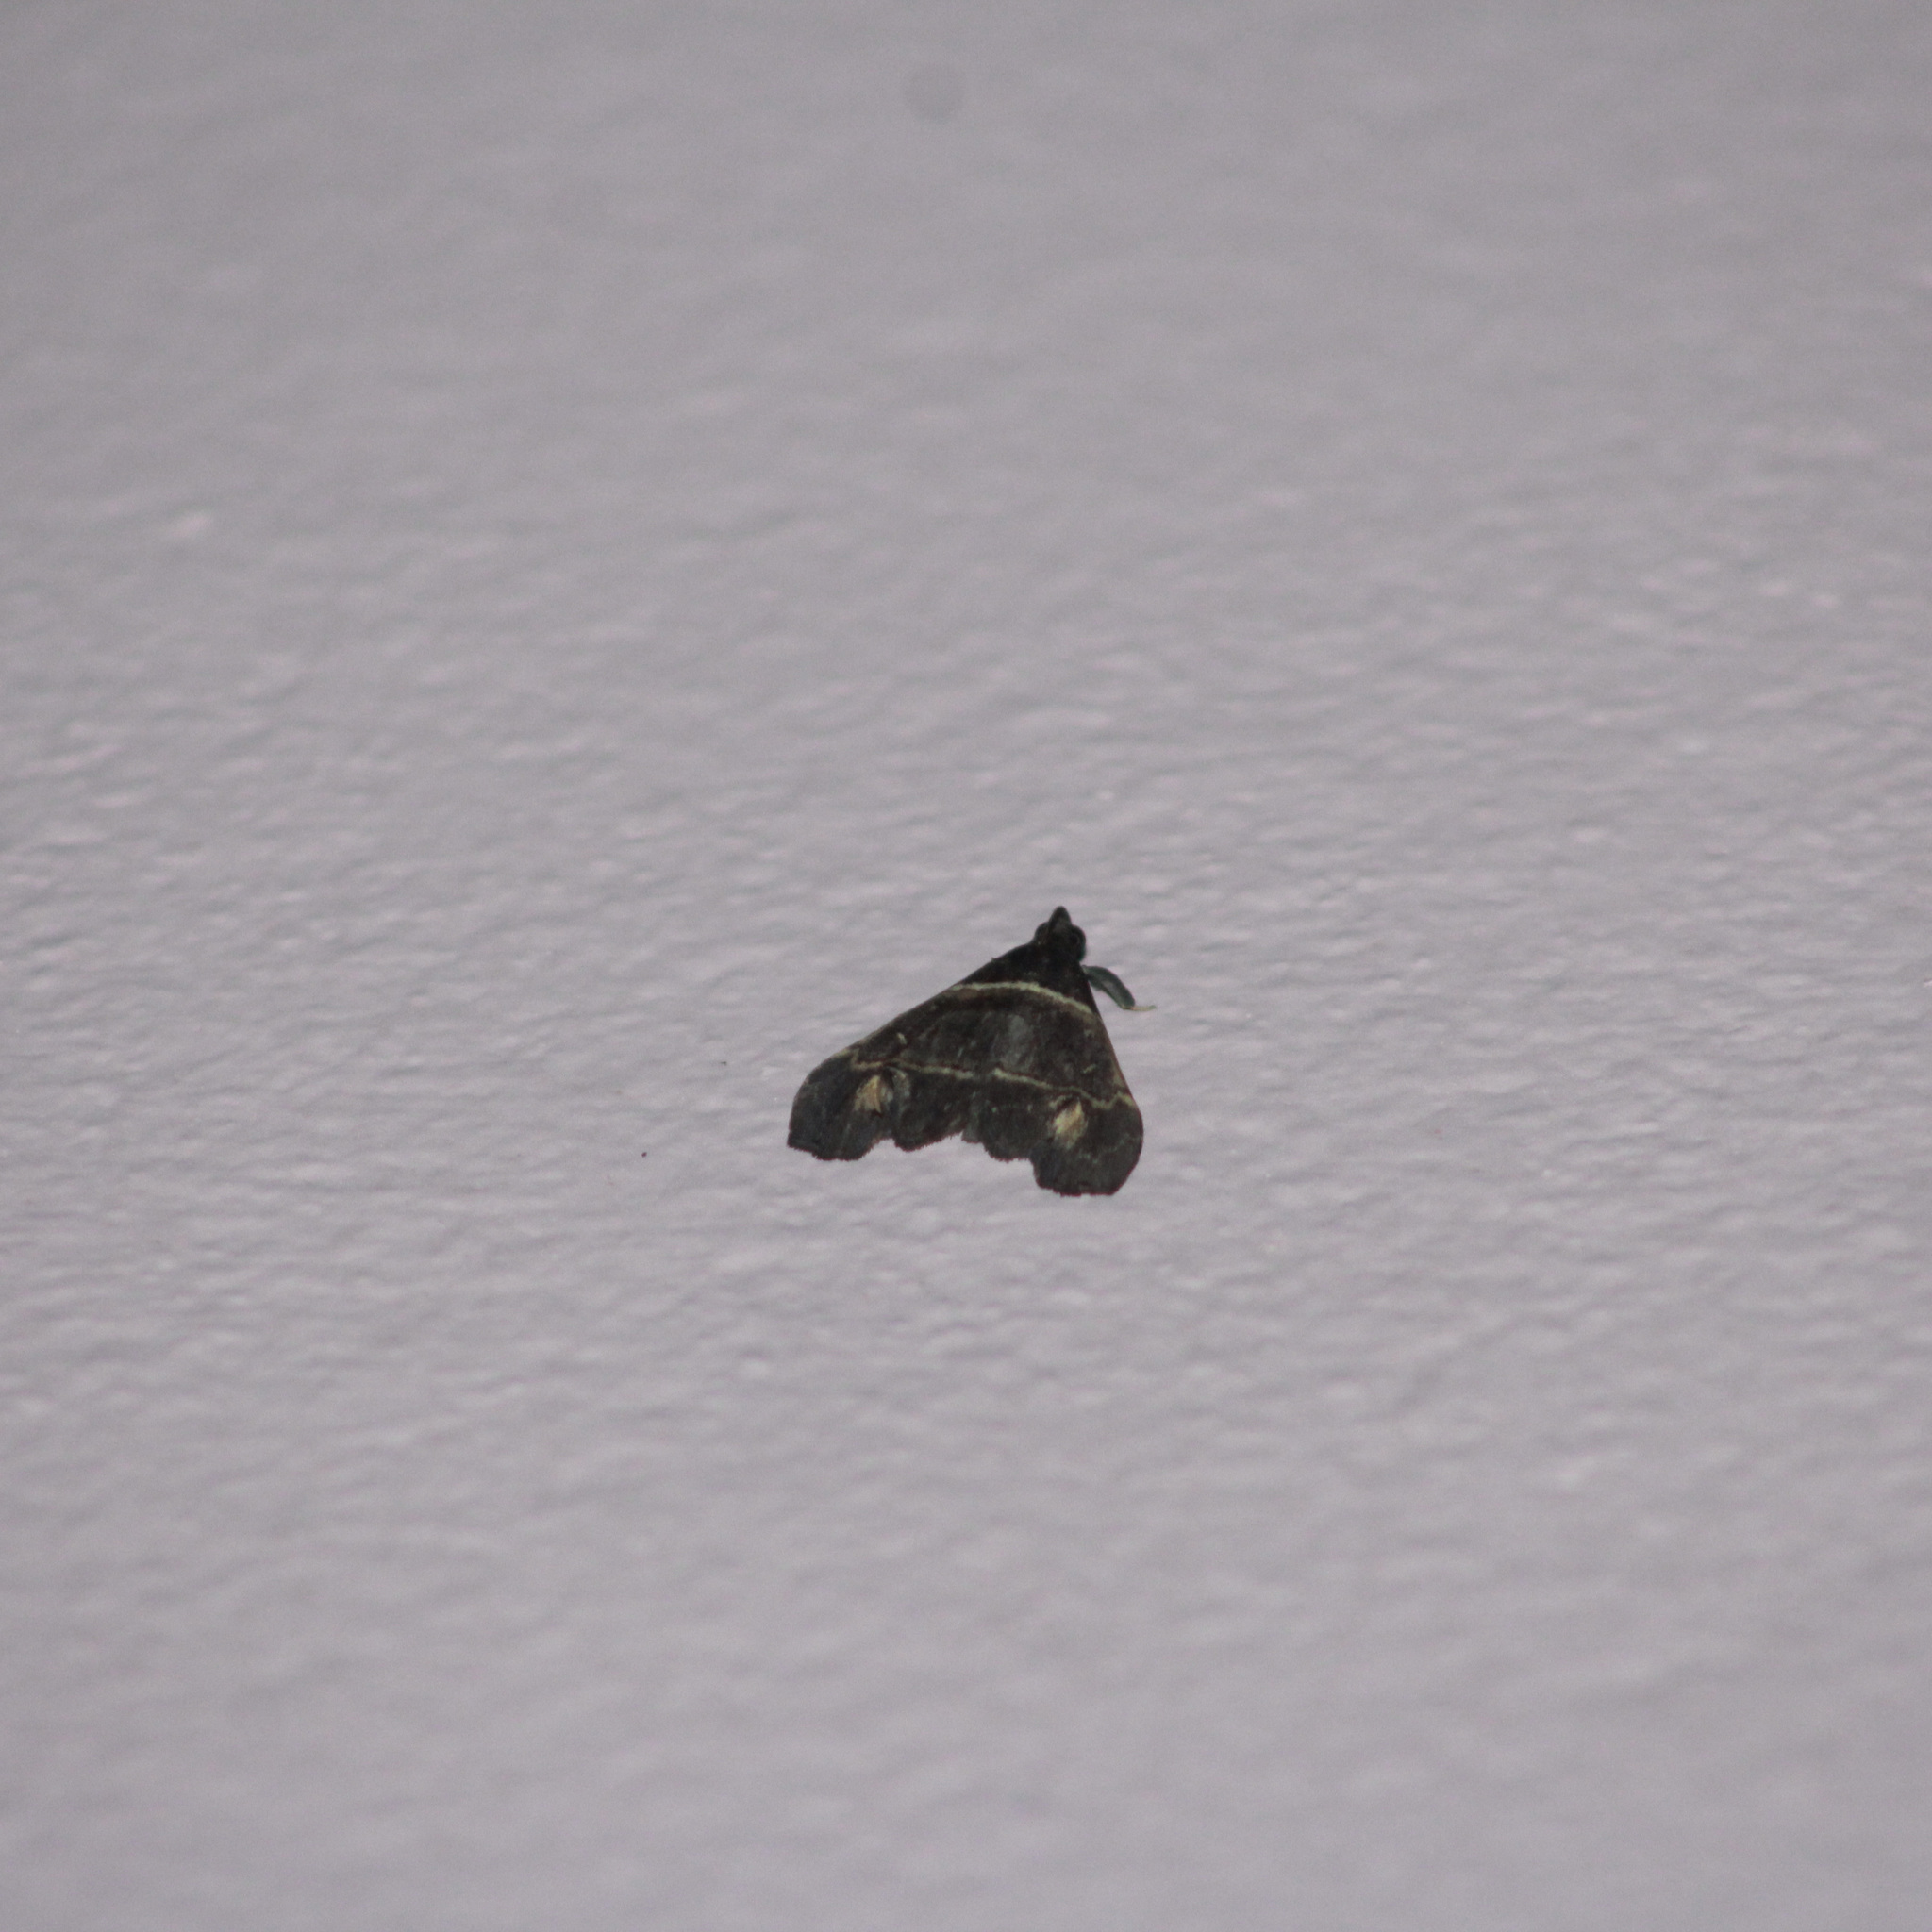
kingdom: Animalia
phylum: Arthropoda
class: Insecta
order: Lepidoptera
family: Erebidae
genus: Lascoria
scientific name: Lascoria leucorhabdota
